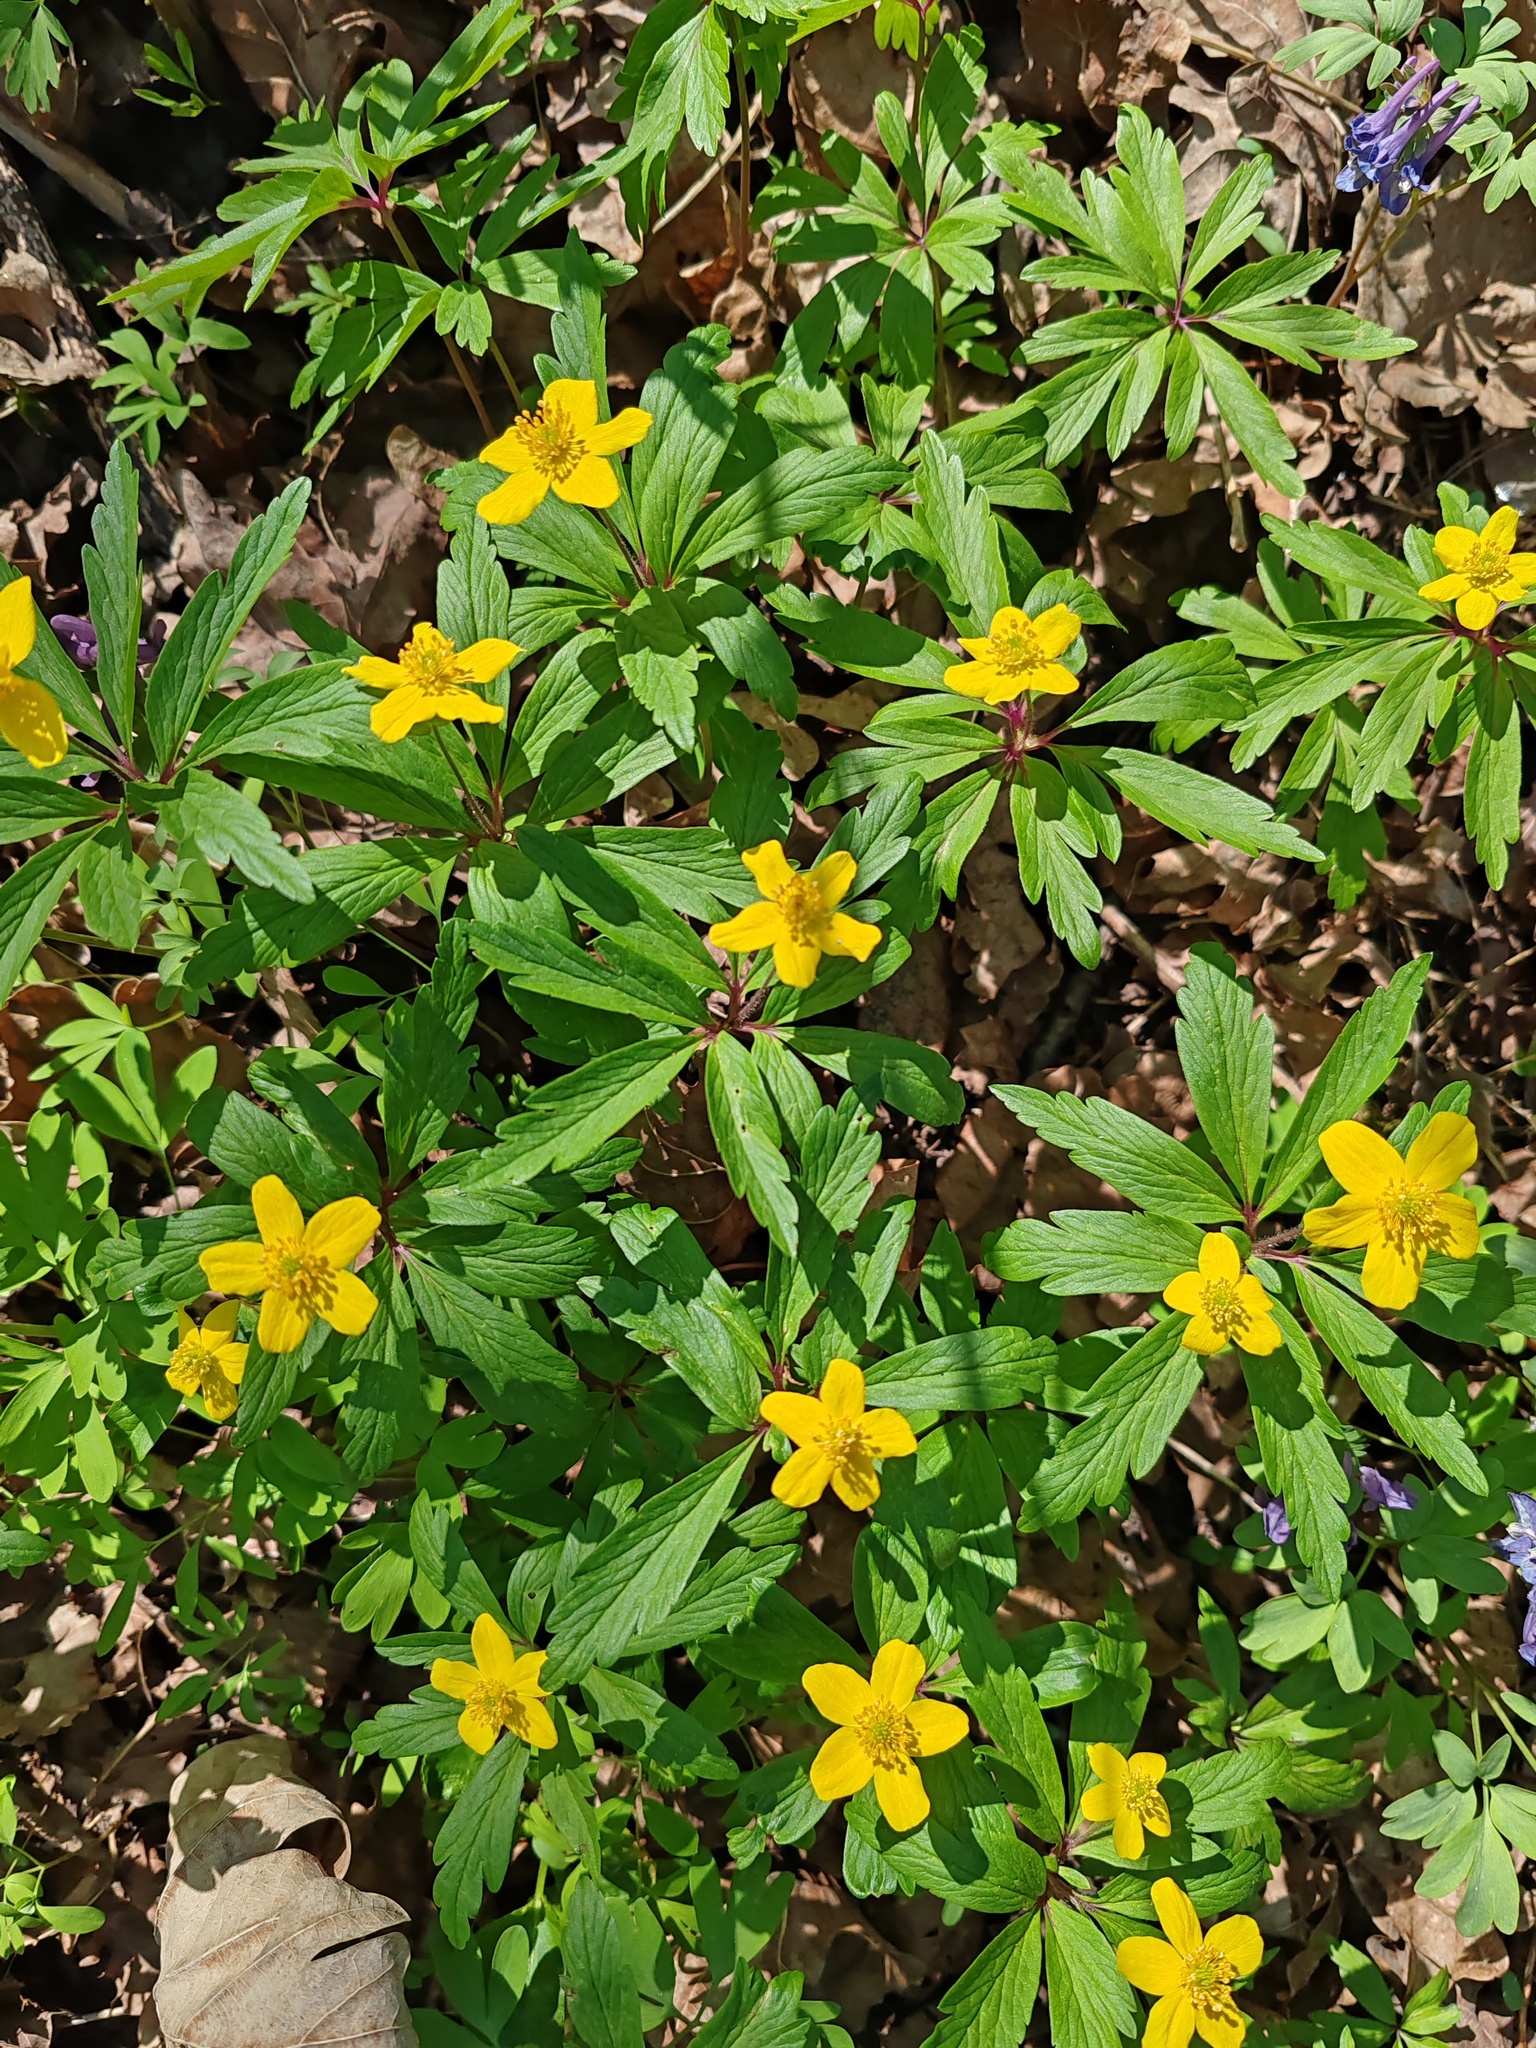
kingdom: Plantae
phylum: Tracheophyta
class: Magnoliopsida
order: Ranunculales
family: Ranunculaceae
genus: Anemone
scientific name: Anemone ranunculoides
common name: Yellow anemone
